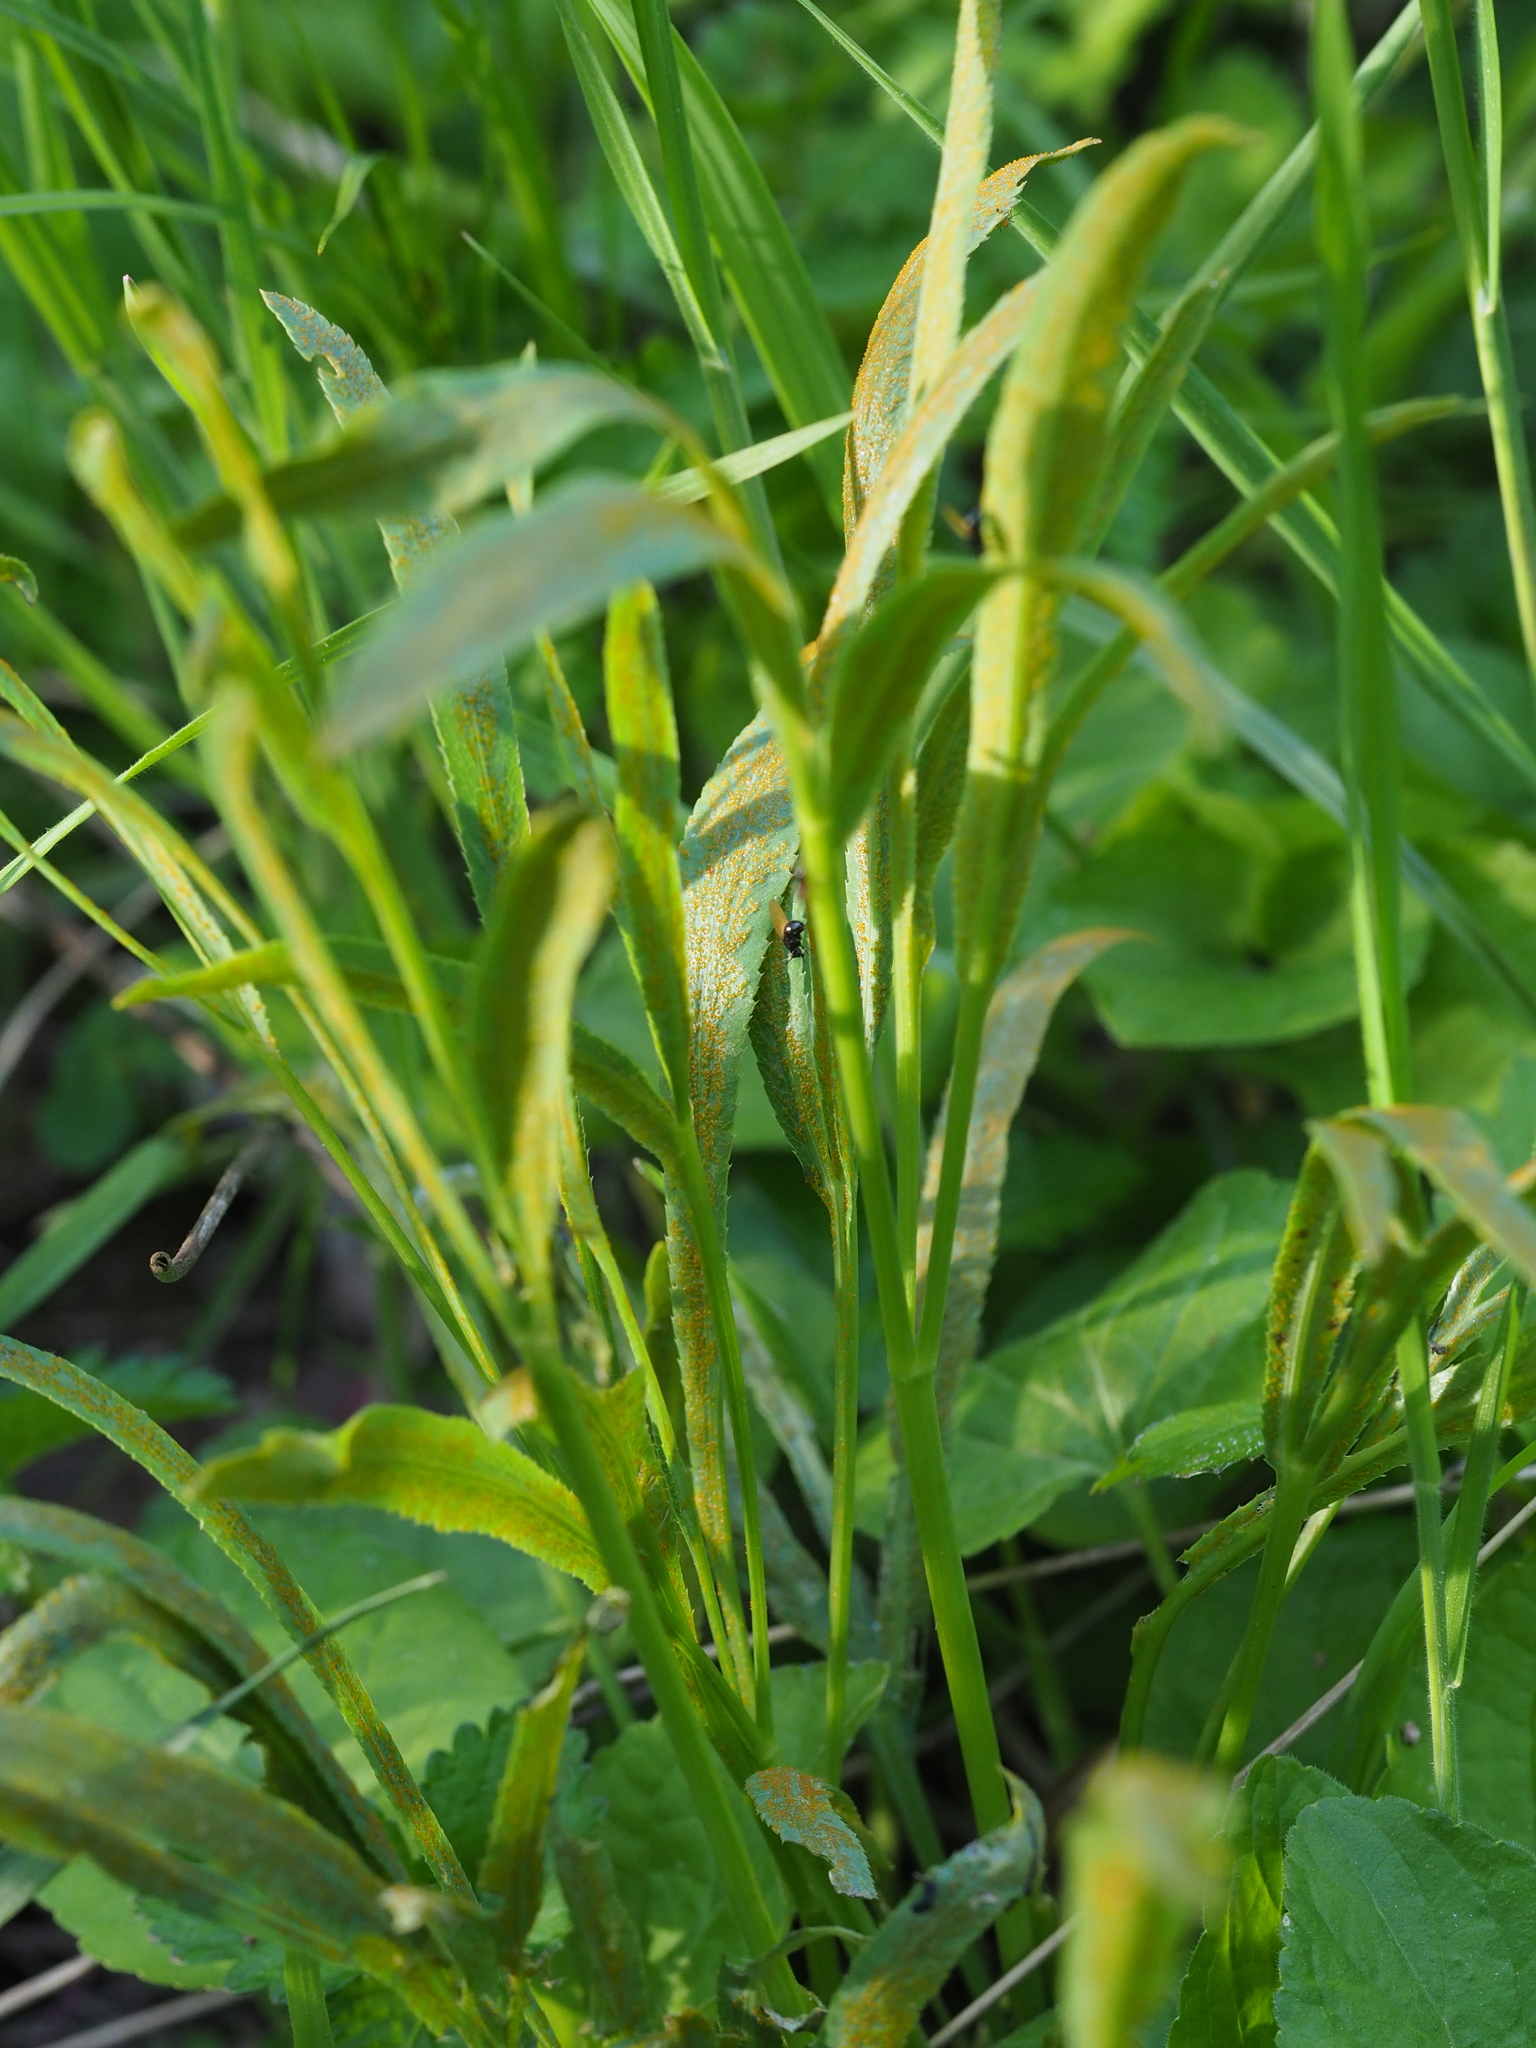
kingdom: Fungi
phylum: Basidiomycota
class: Pucciniomycetes
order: Pucciniales
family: Pucciniaceae
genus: Puccinia
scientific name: Puccinia sii-falcariae
